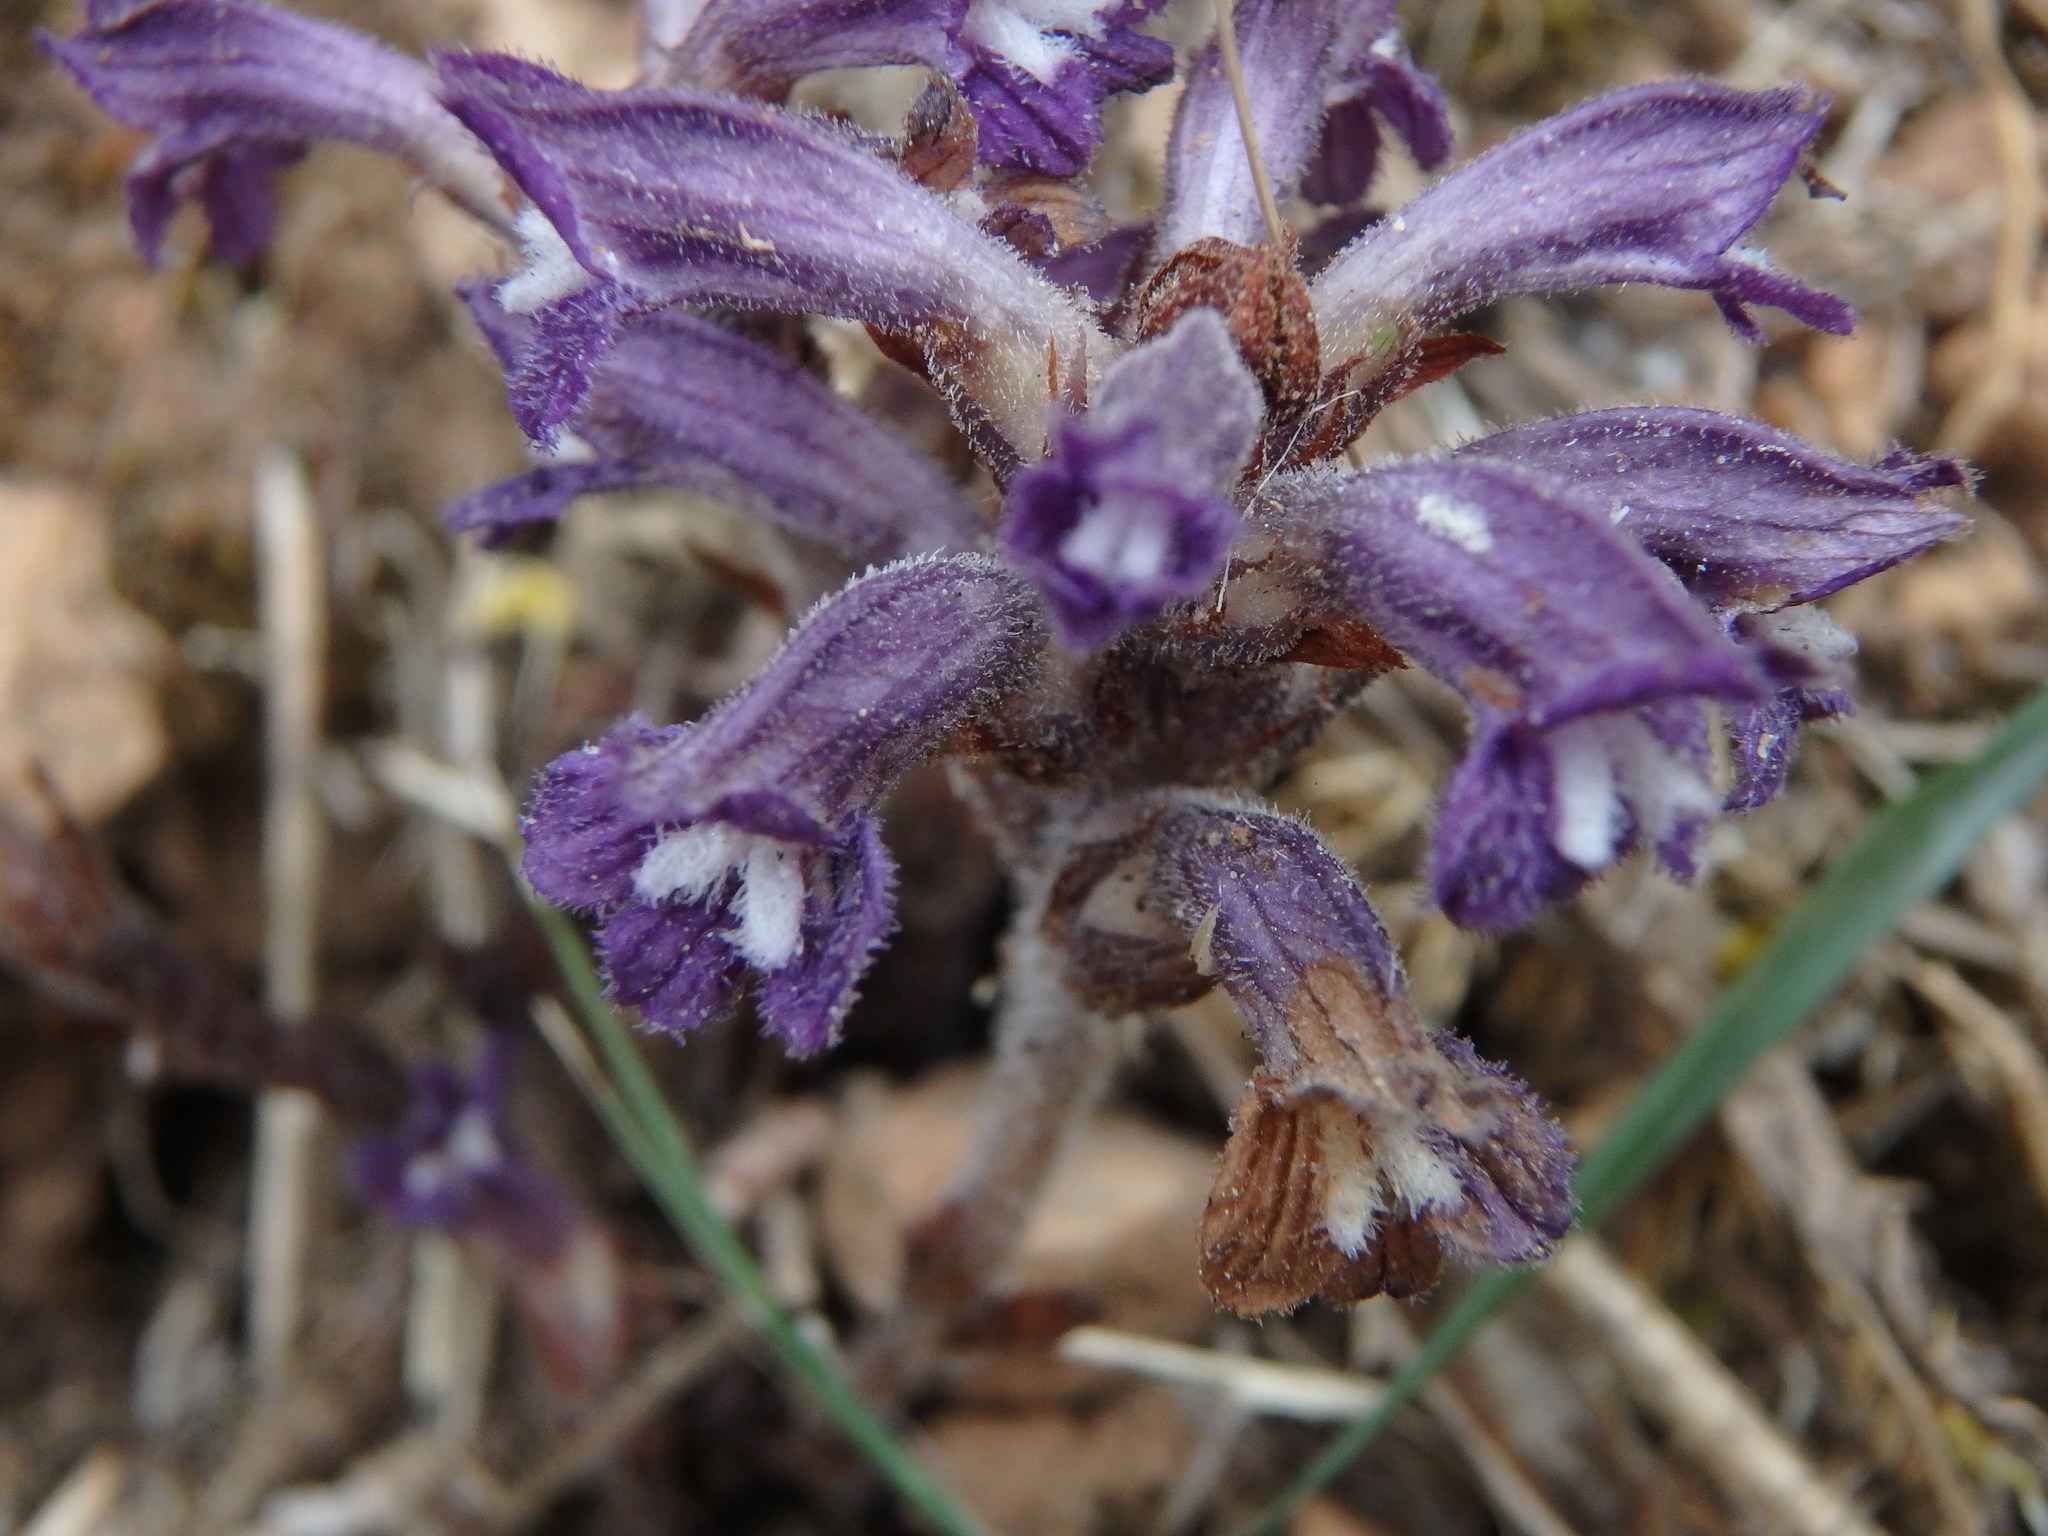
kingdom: Plantae
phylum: Tracheophyta
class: Magnoliopsida
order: Lamiales
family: Orobanchaceae
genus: Phelipanche
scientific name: Phelipanche mutelii
